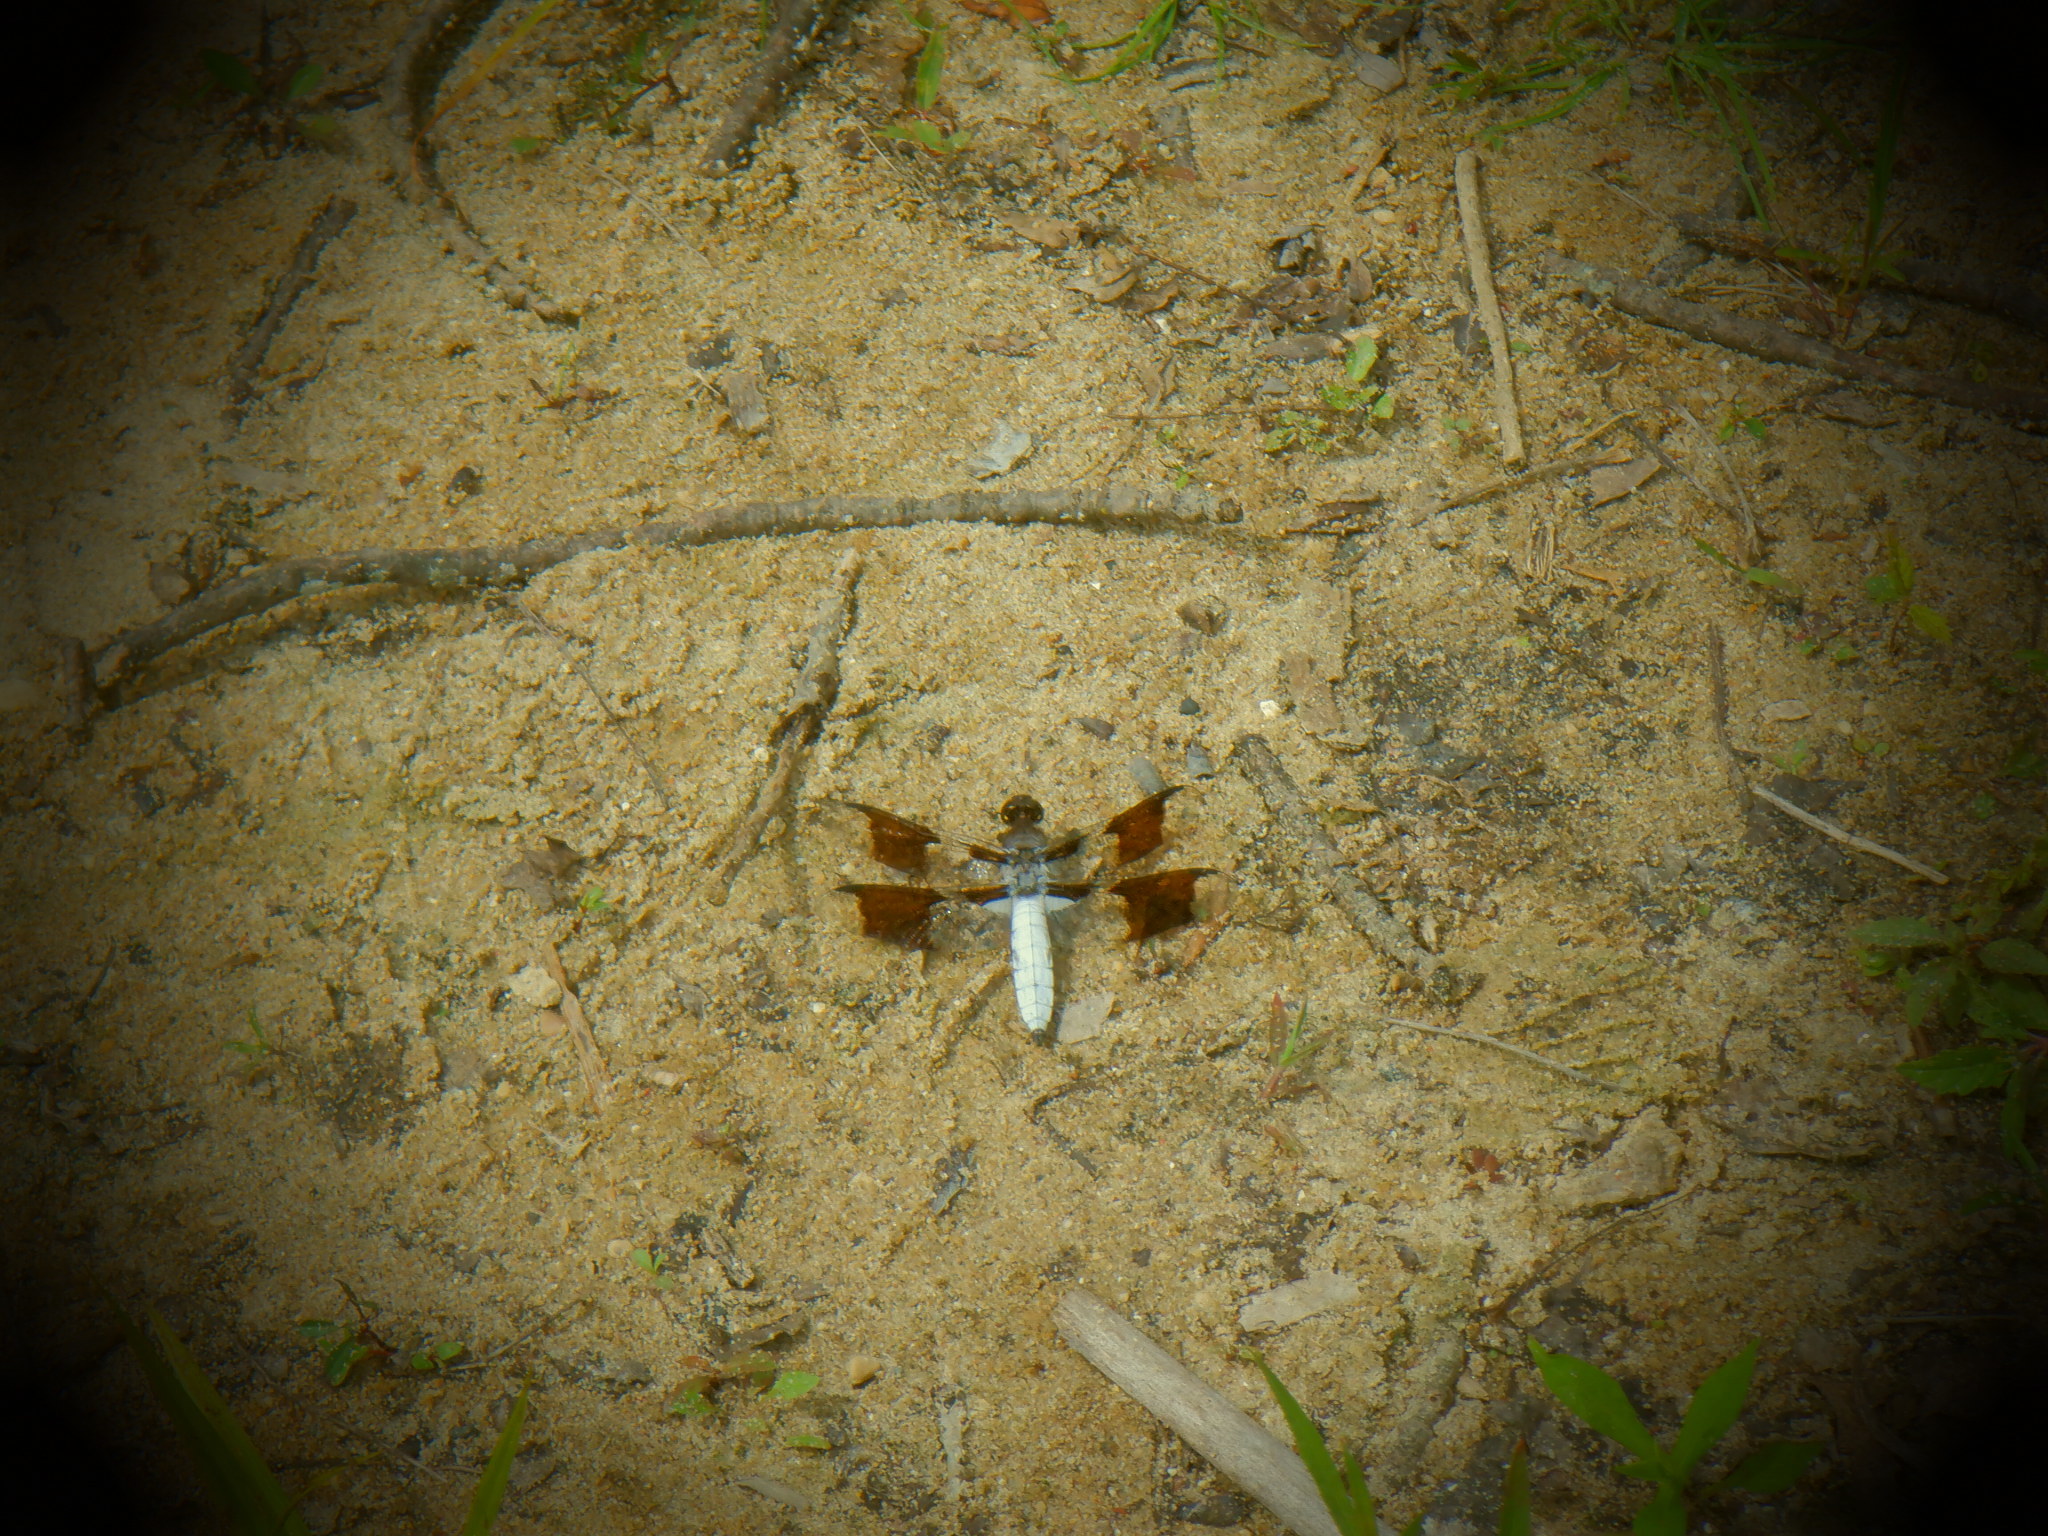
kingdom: Animalia
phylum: Arthropoda
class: Insecta
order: Odonata
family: Libellulidae
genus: Plathemis
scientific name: Plathemis lydia
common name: Common whitetail
